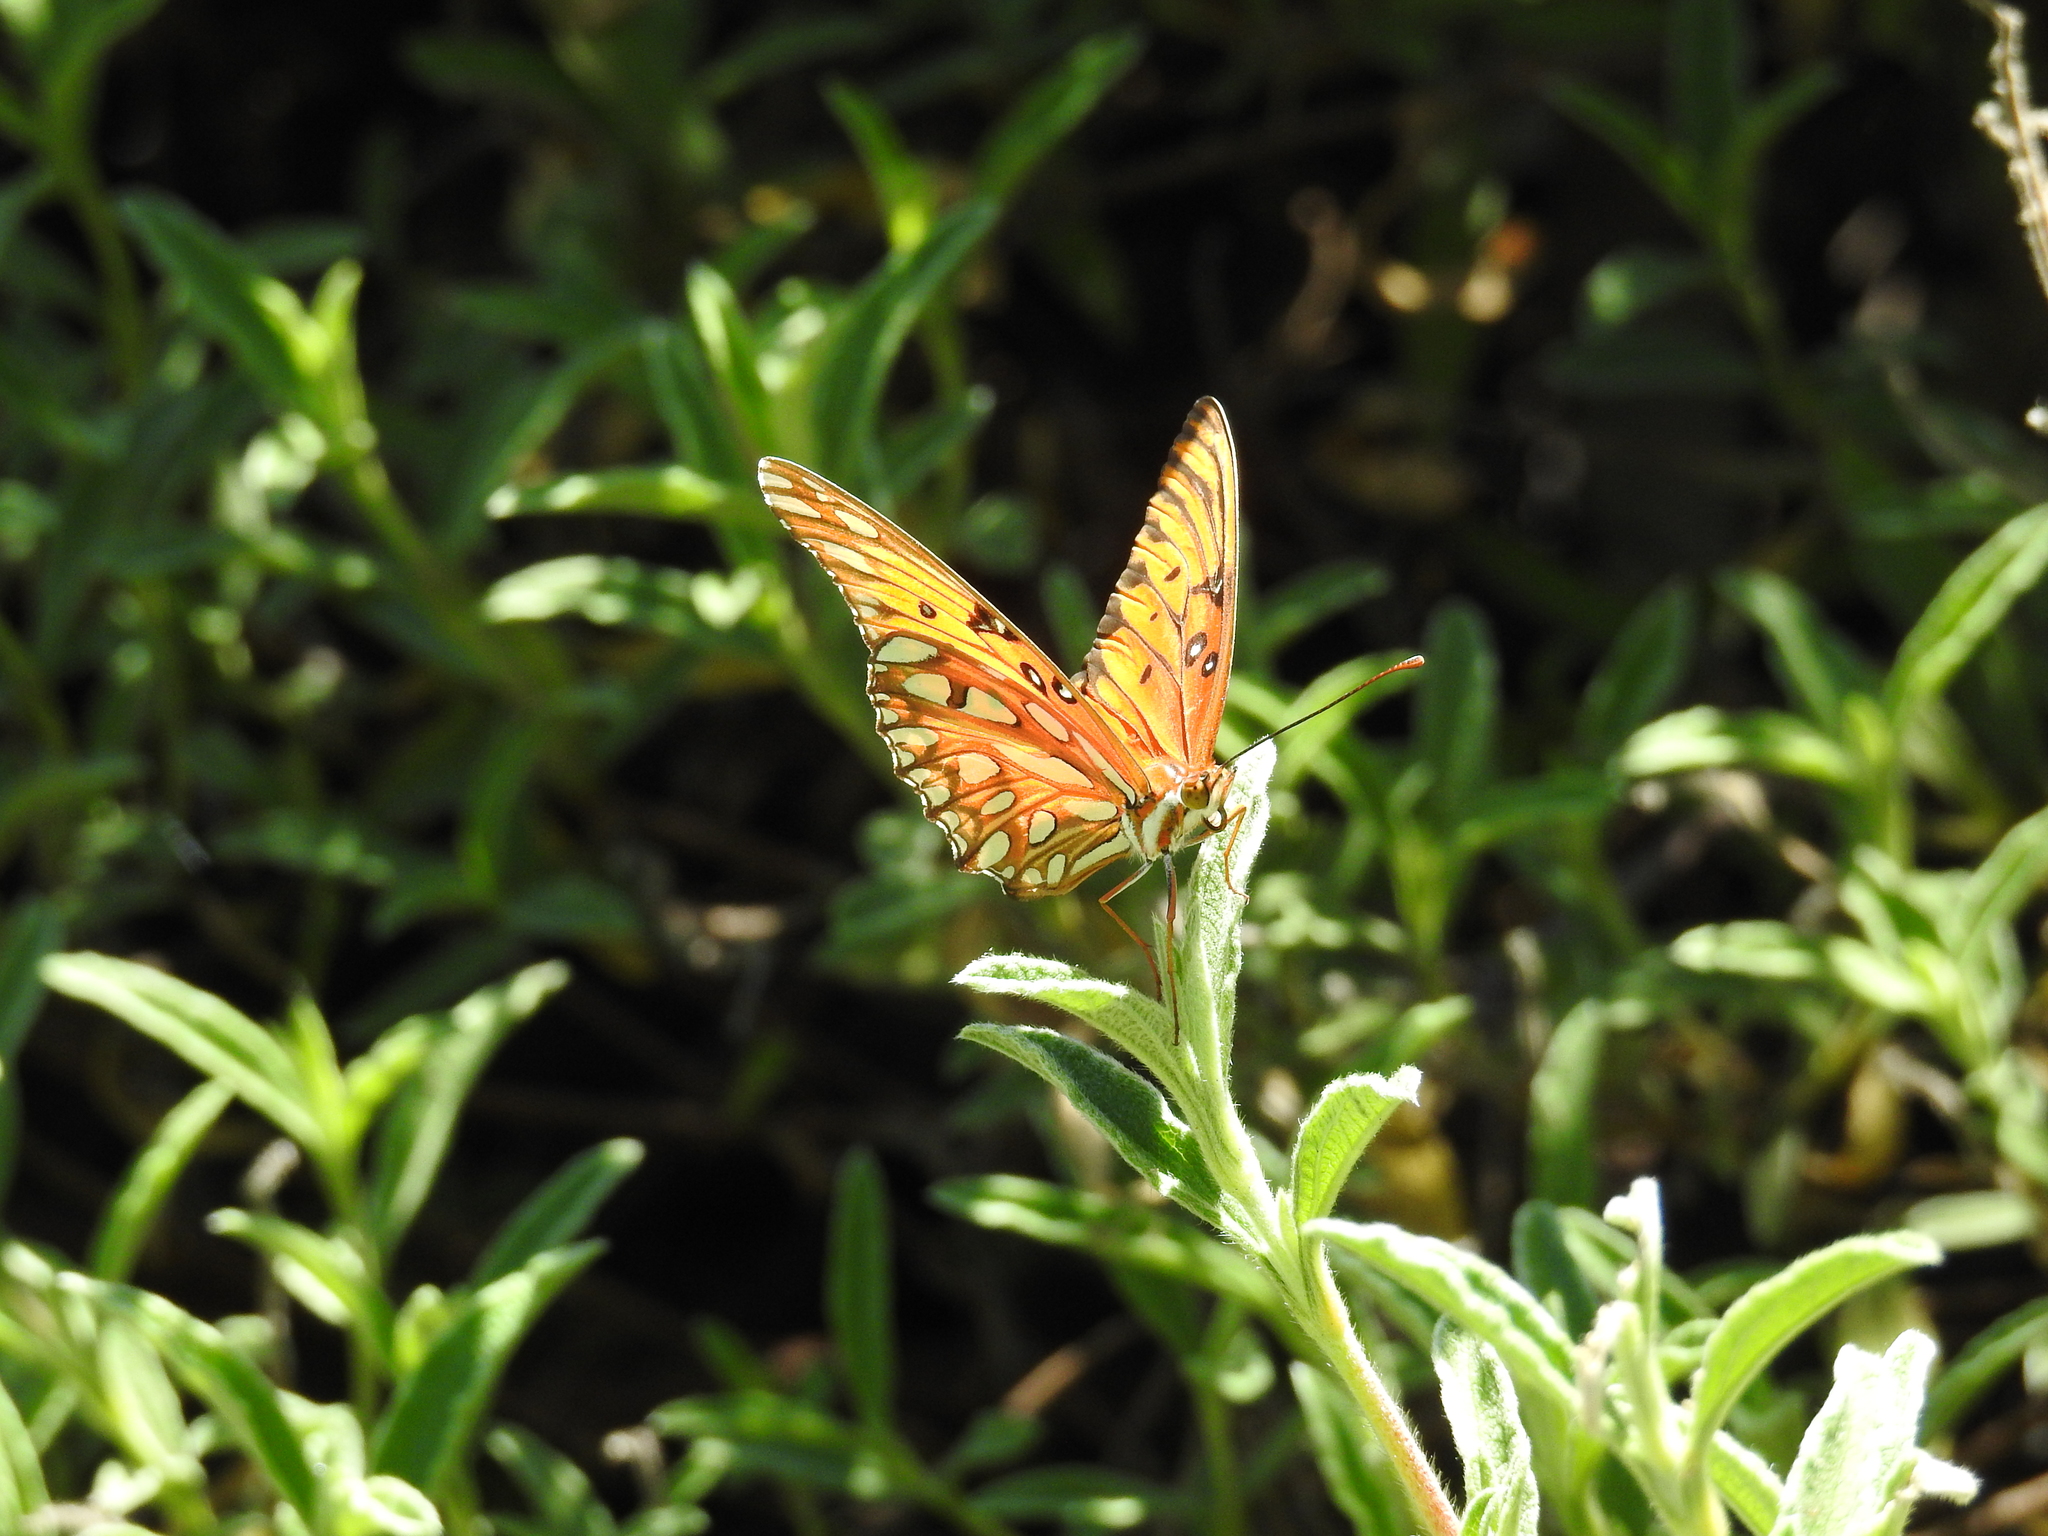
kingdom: Animalia
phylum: Arthropoda
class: Insecta
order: Lepidoptera
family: Nymphalidae
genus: Dione
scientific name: Dione vanillae
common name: Gulf fritillary
